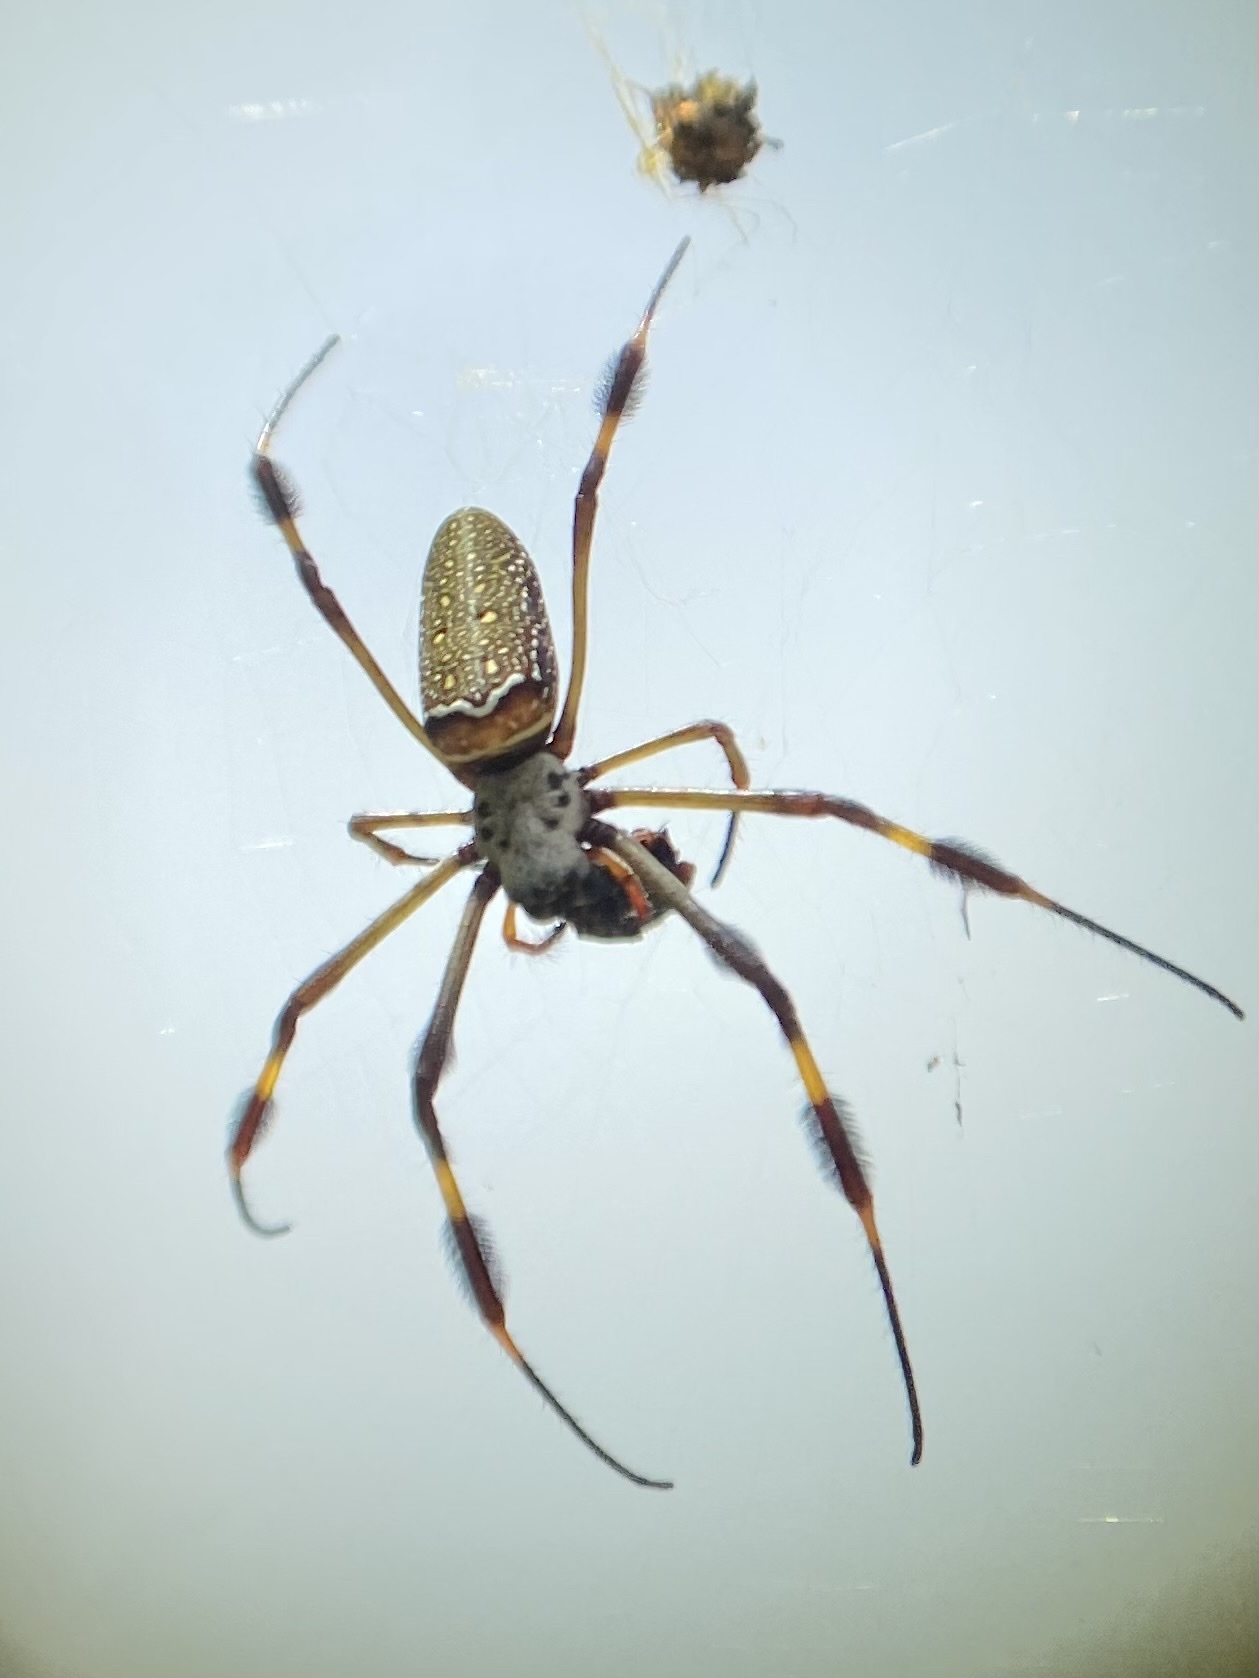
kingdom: Animalia
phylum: Arthropoda
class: Arachnida
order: Araneae
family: Araneidae
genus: Trichonephila
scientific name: Trichonephila clavipes
